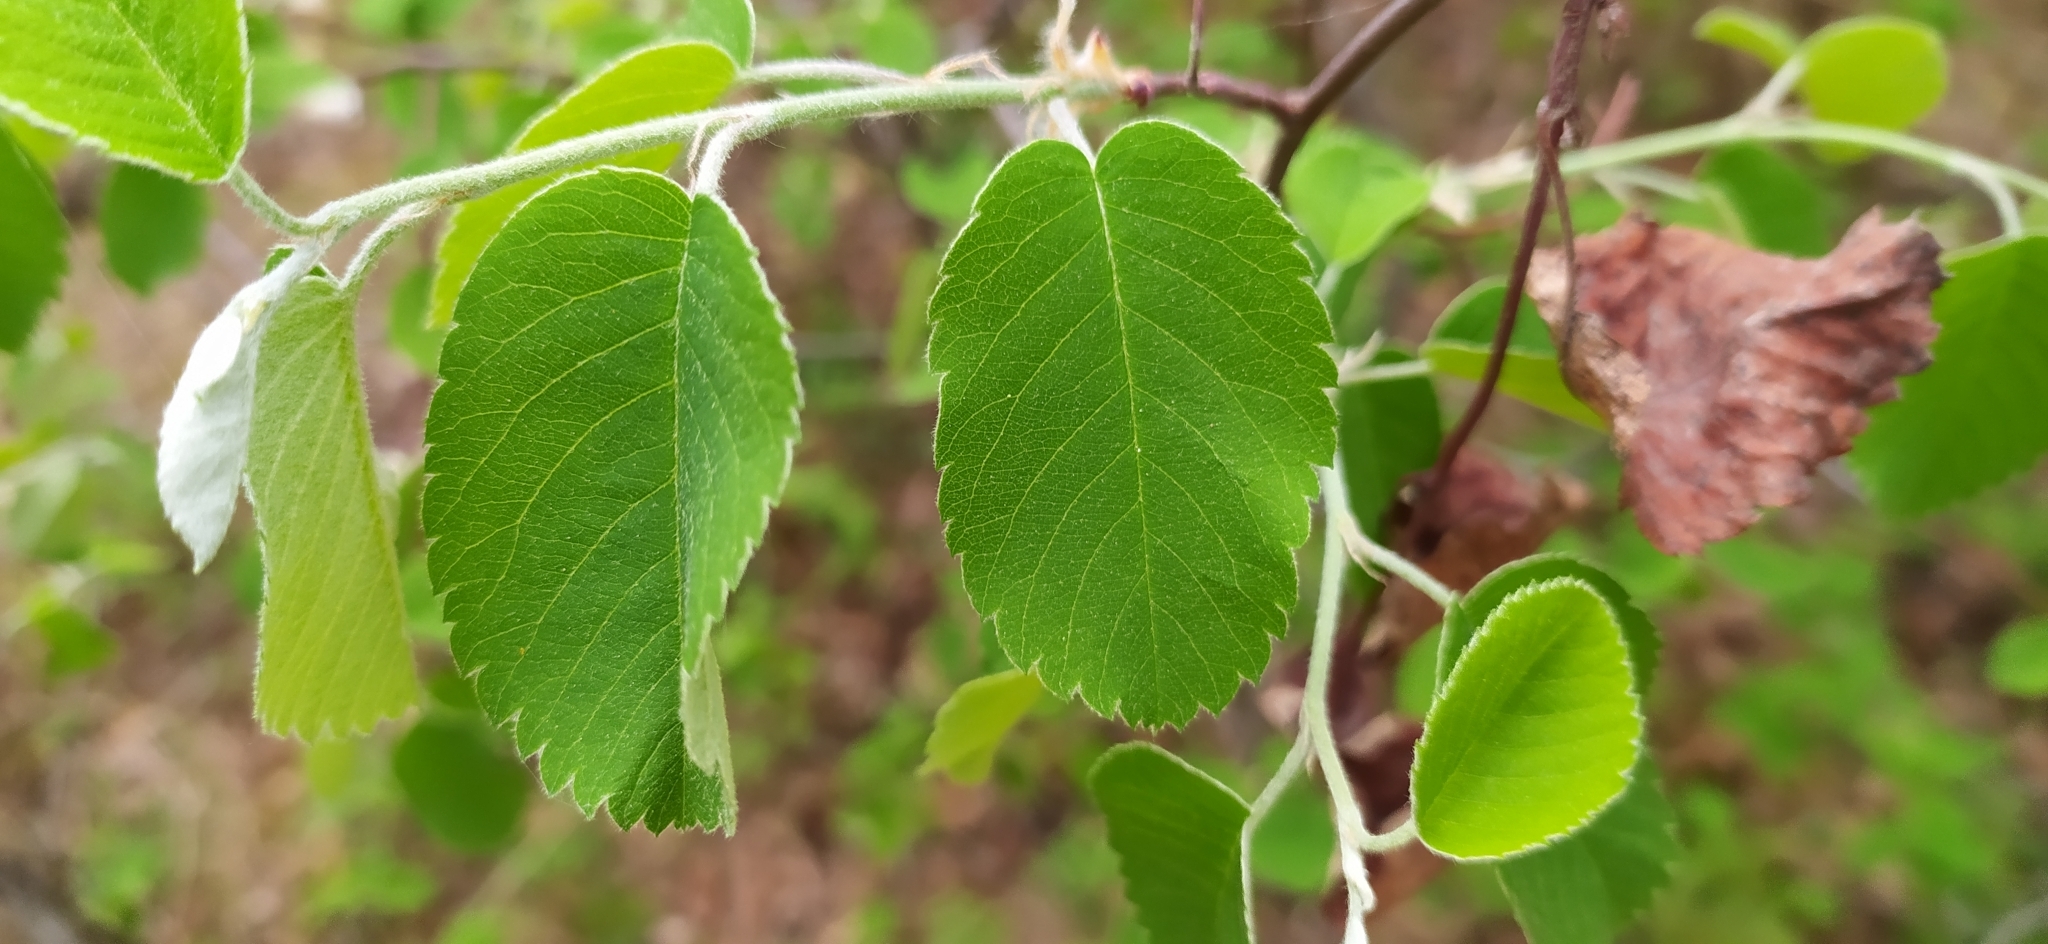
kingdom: Plantae
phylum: Tracheophyta
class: Magnoliopsida
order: Rosales
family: Rosaceae
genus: Amelanchier
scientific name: Amelanchier alnifolia
